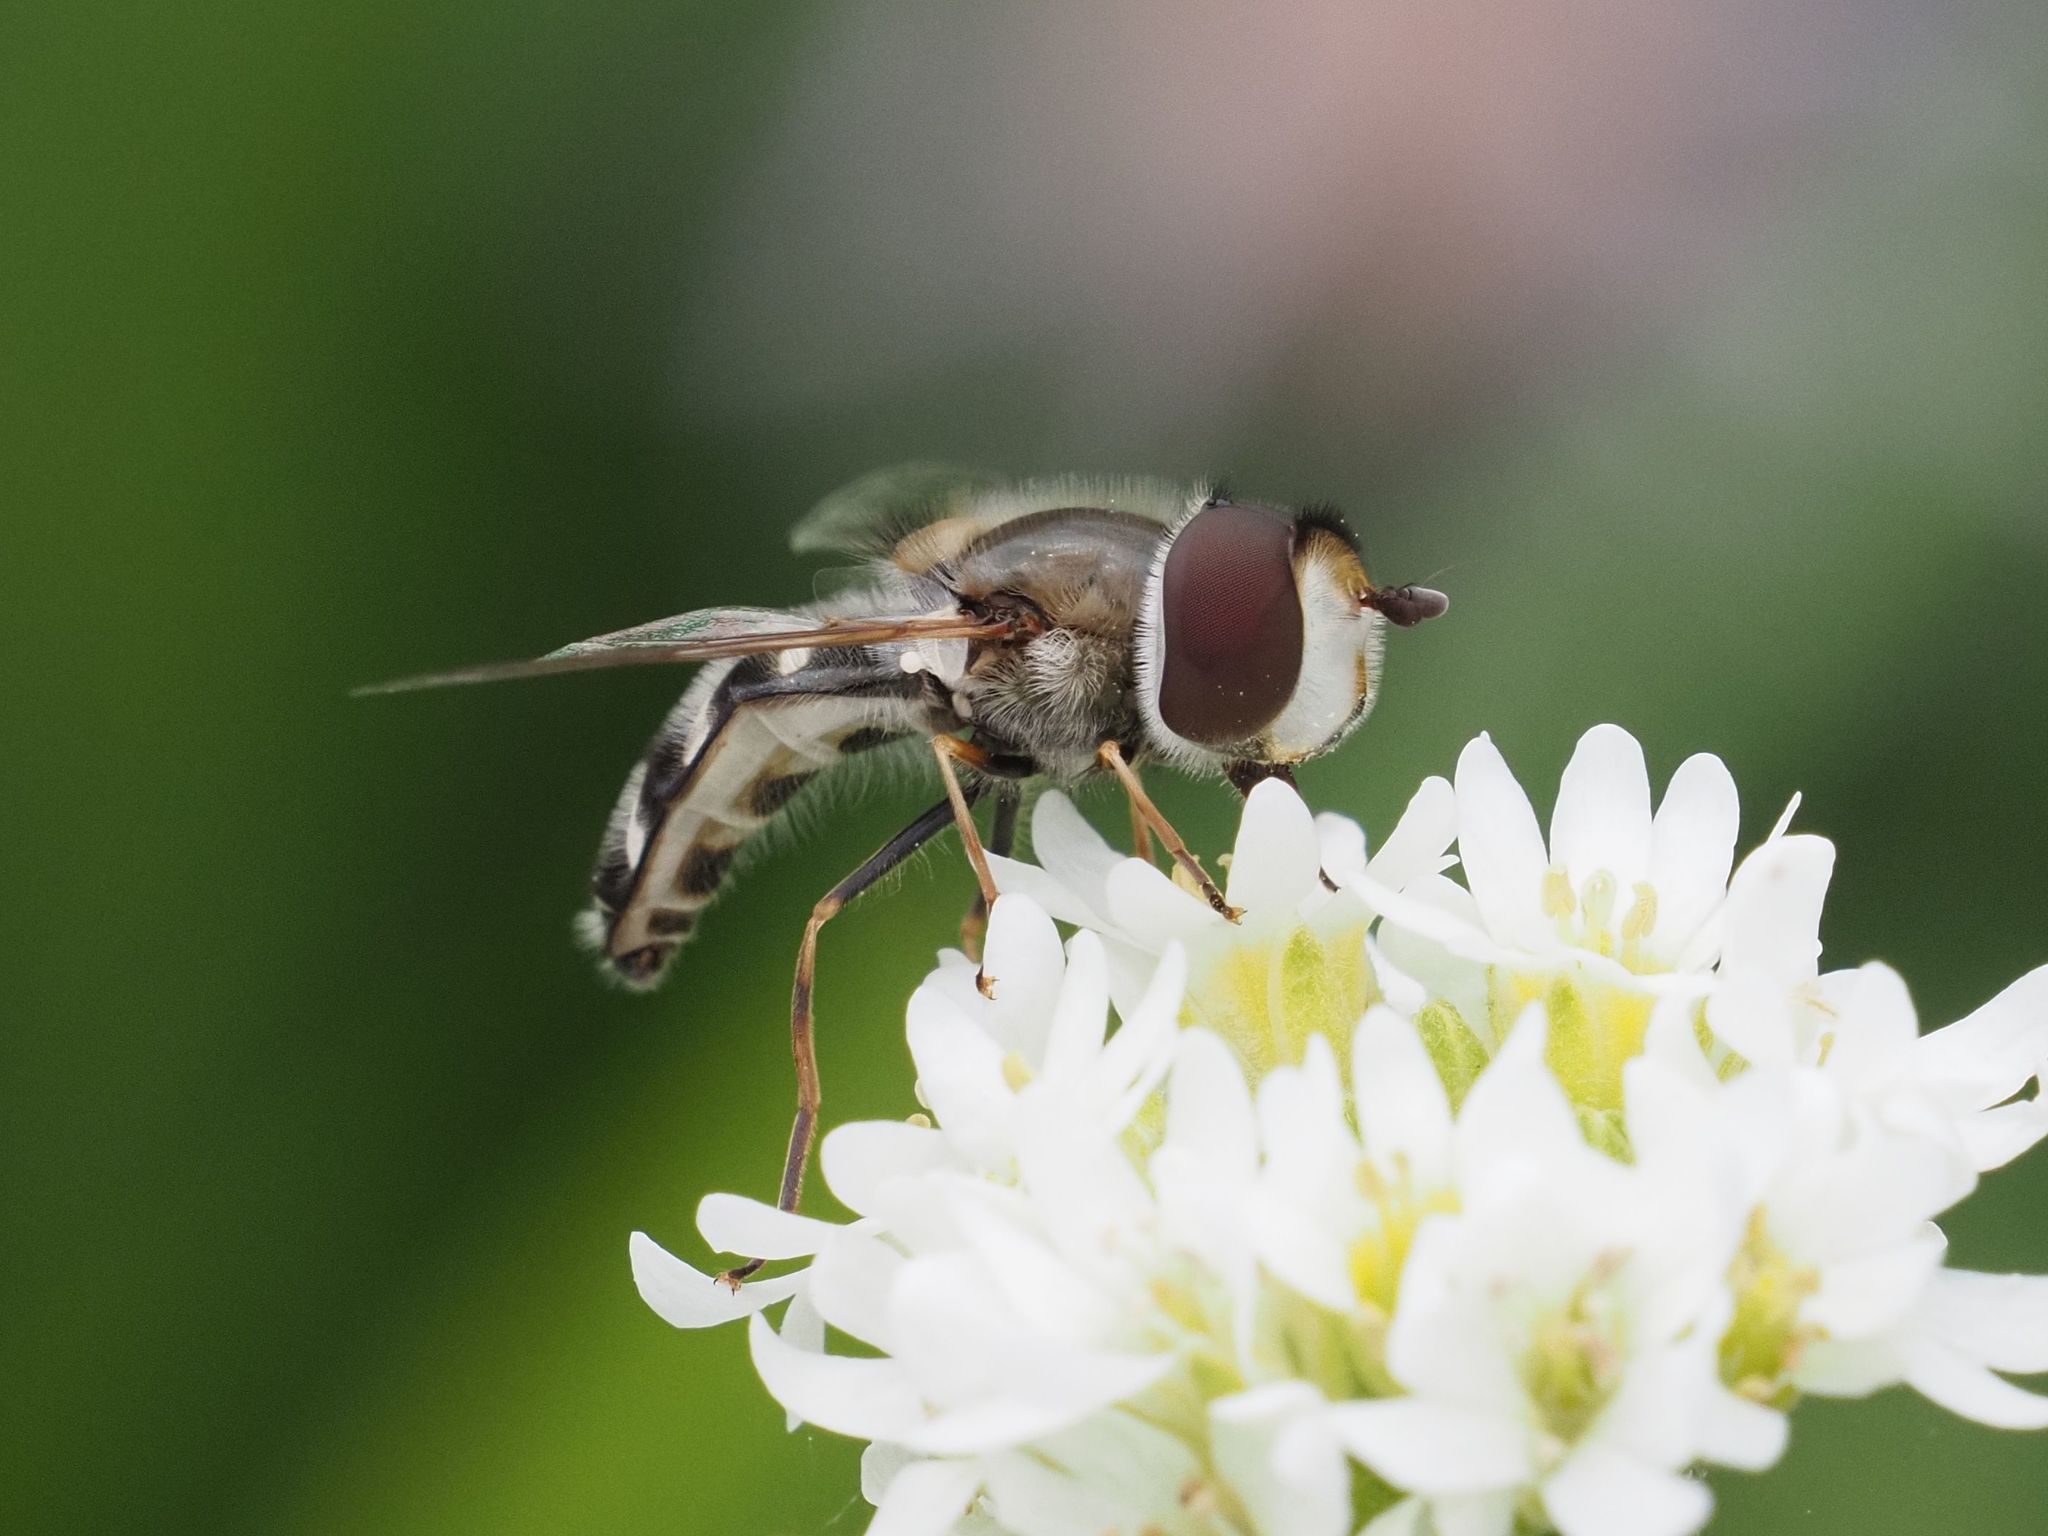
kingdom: Animalia
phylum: Arthropoda
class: Insecta
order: Diptera
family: Syrphidae
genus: Scaeva
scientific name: Scaeva pyrastri
